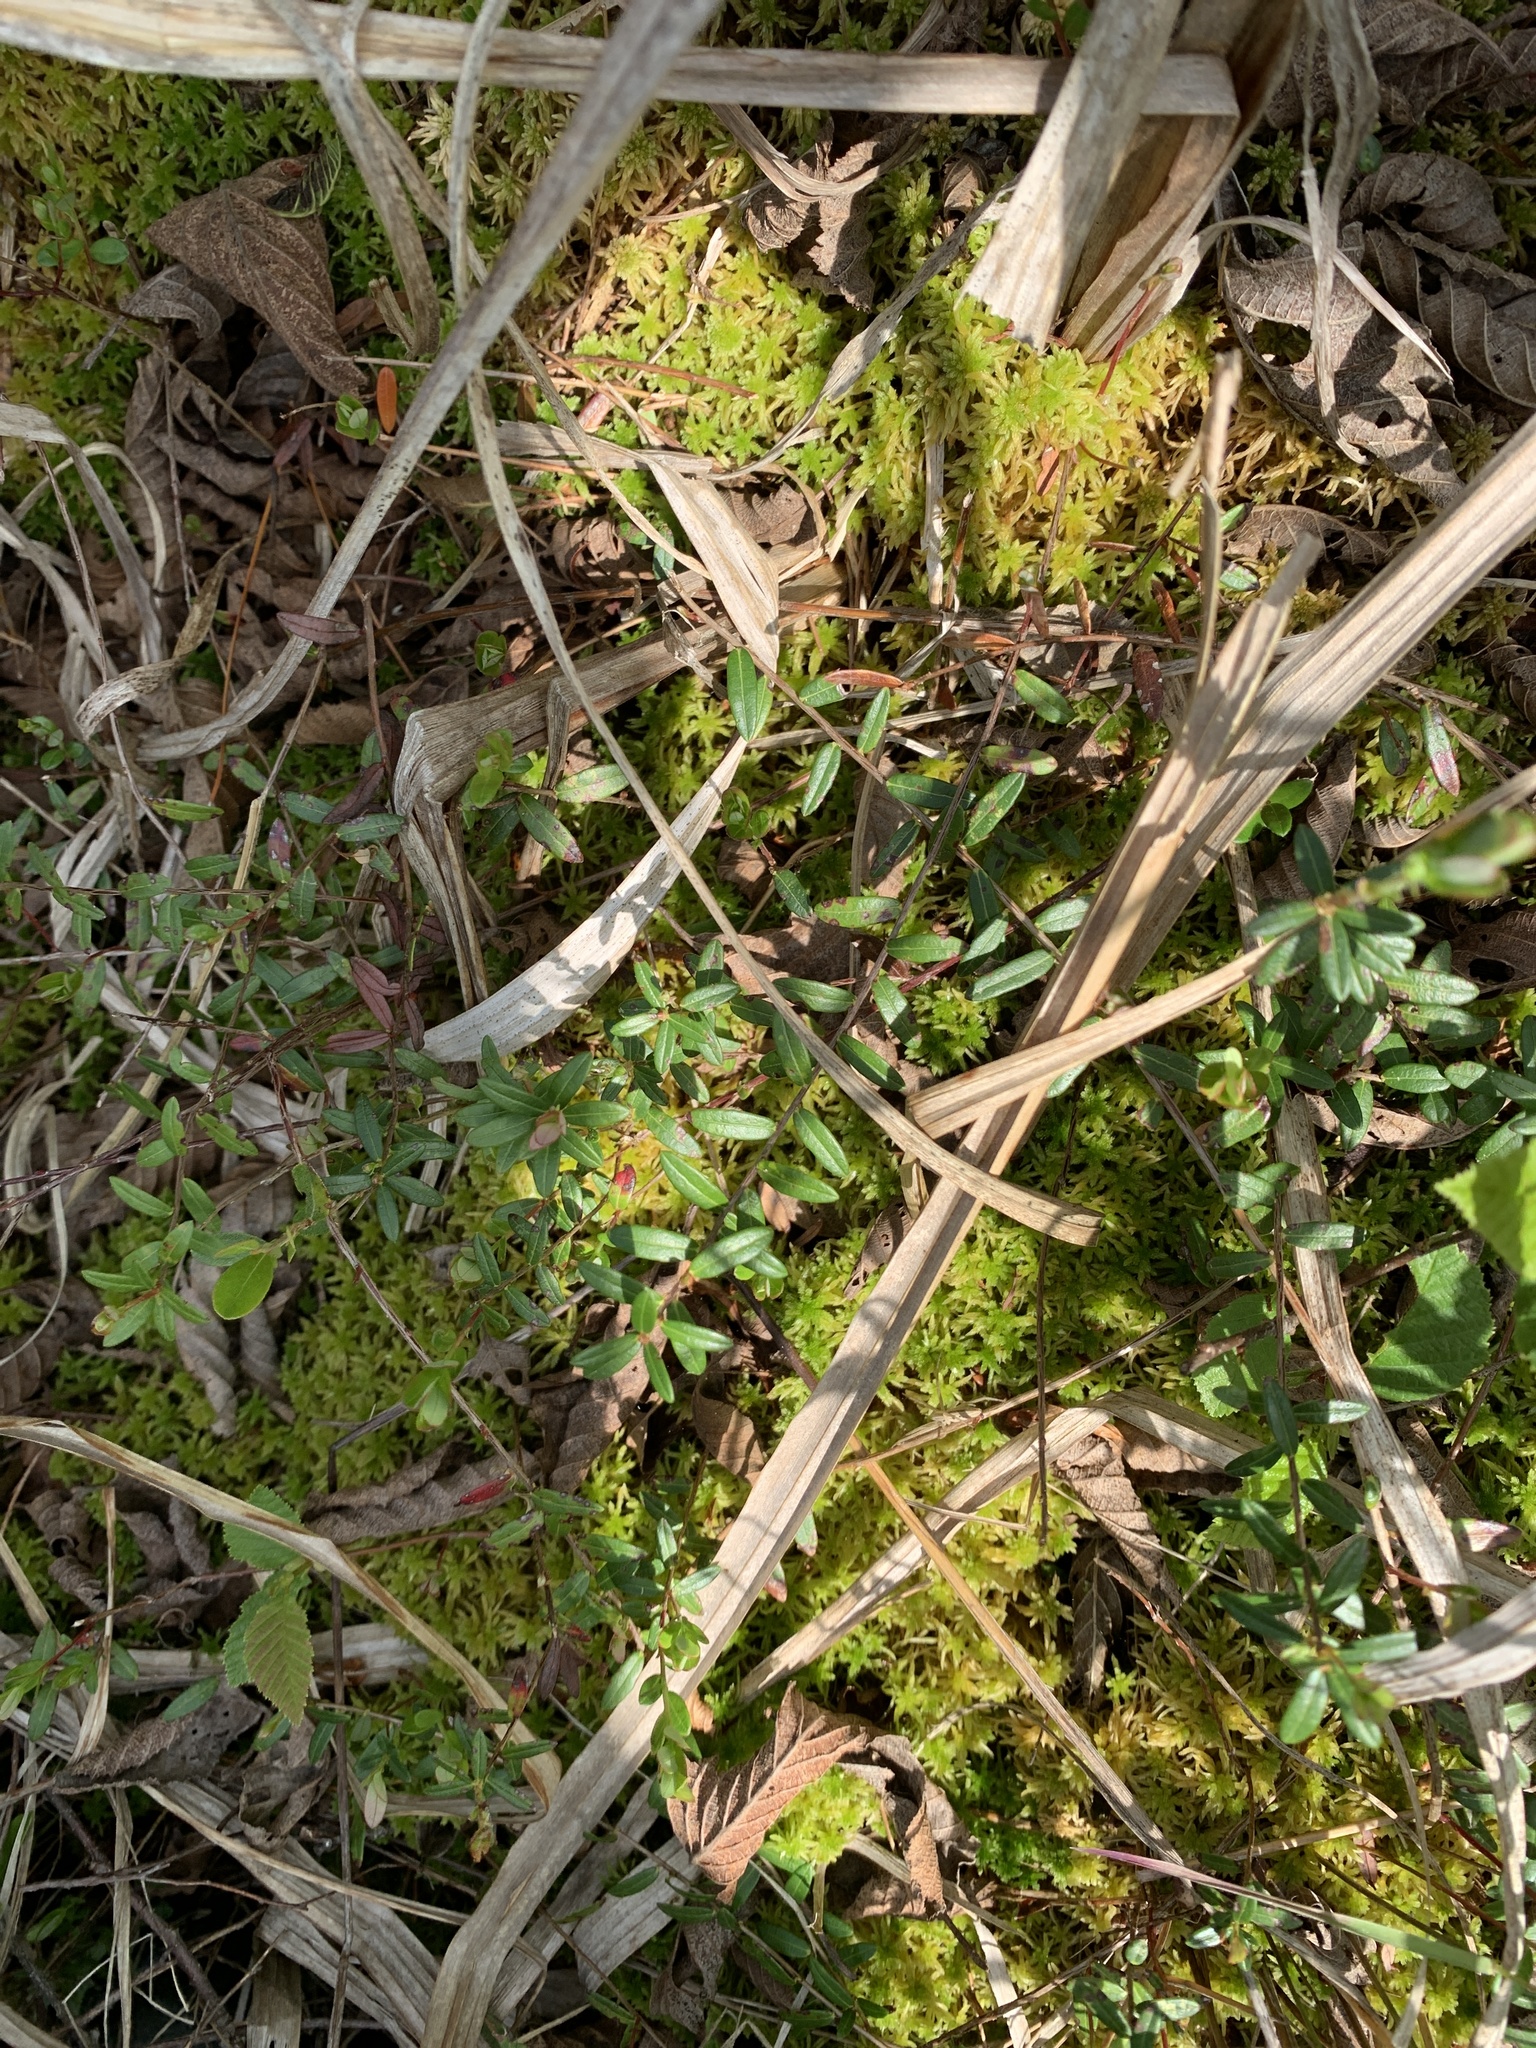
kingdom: Plantae
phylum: Tracheophyta
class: Magnoliopsida
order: Ericales
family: Ericaceae
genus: Vaccinium
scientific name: Vaccinium macrocarpon
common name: American cranberry
